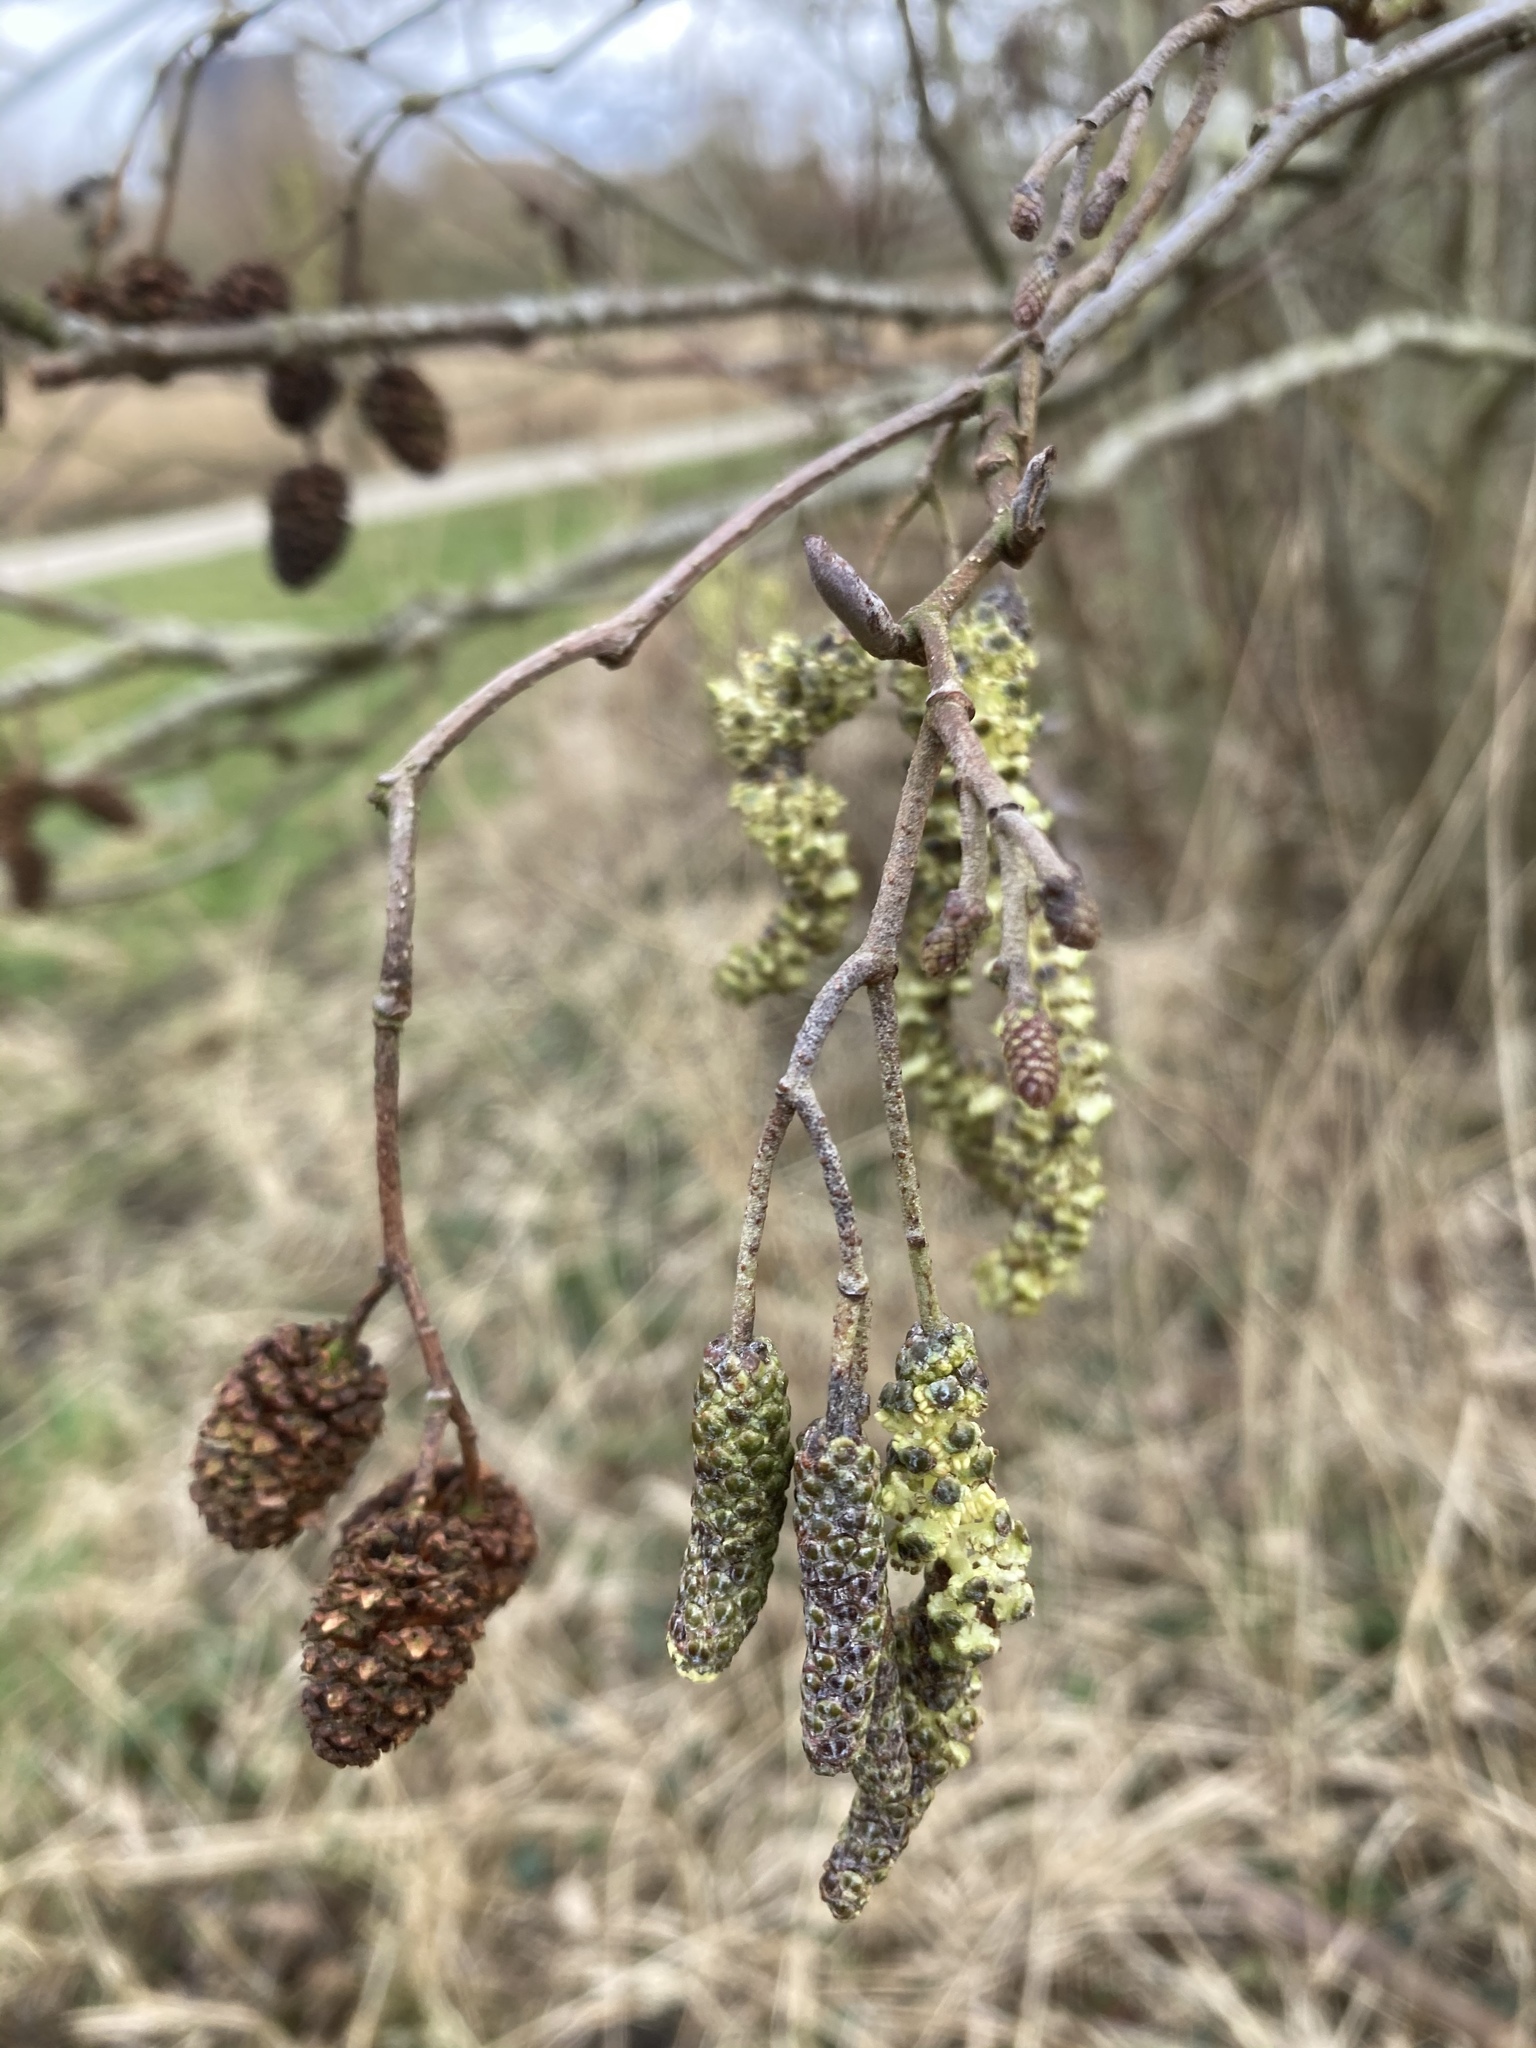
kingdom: Plantae
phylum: Tracheophyta
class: Magnoliopsida
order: Fagales
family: Betulaceae
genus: Alnus
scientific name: Alnus glutinosa
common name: Black alder
